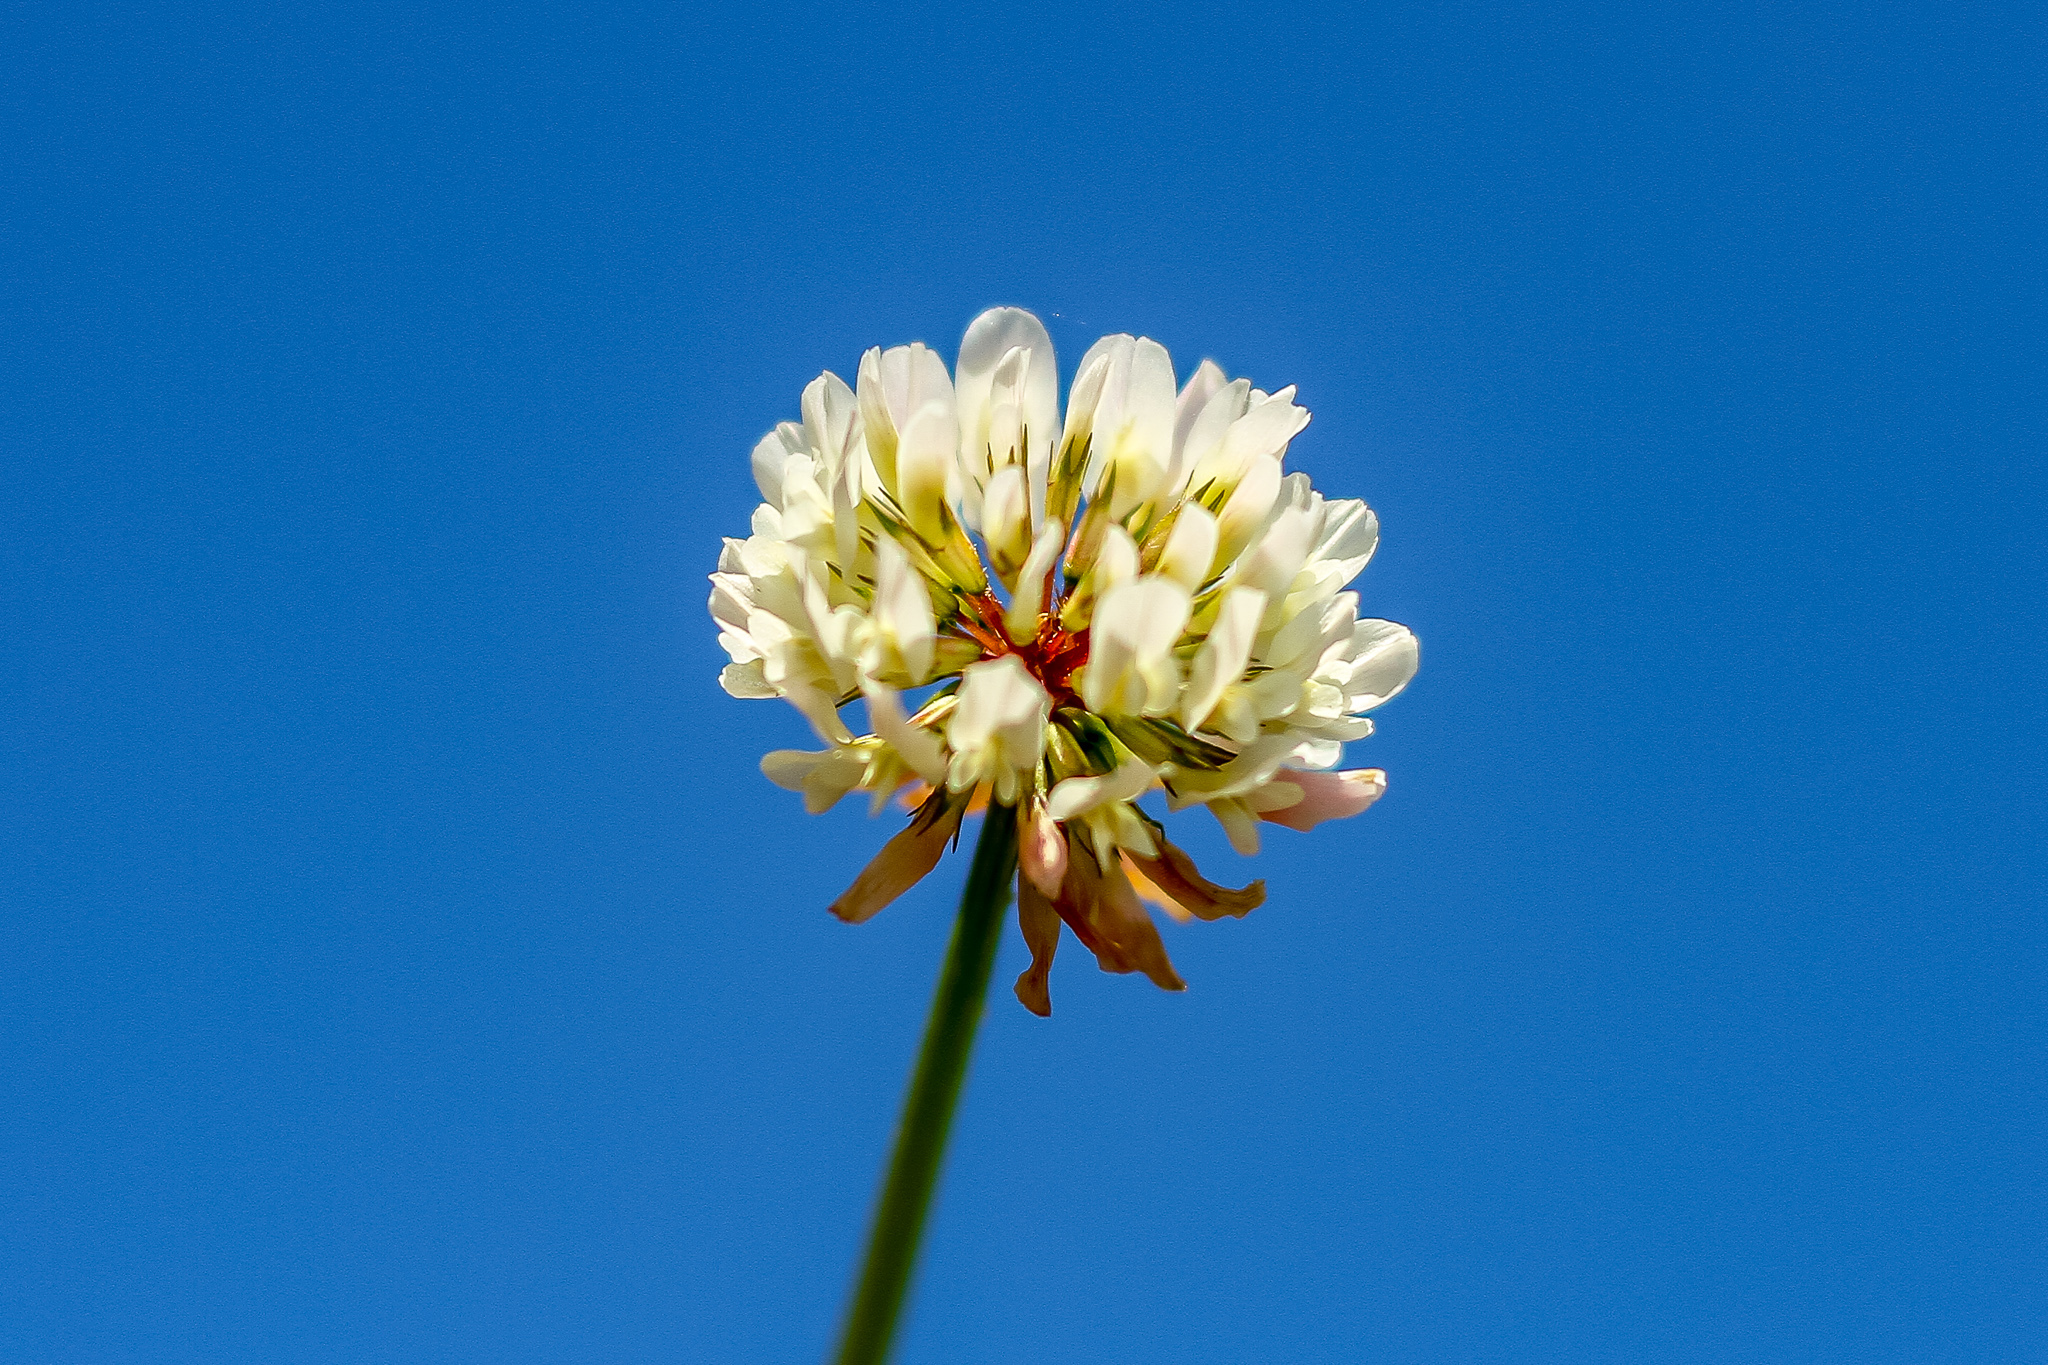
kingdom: Plantae
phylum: Tracheophyta
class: Magnoliopsida
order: Fabales
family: Fabaceae
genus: Trifolium
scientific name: Trifolium repens
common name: White clover
